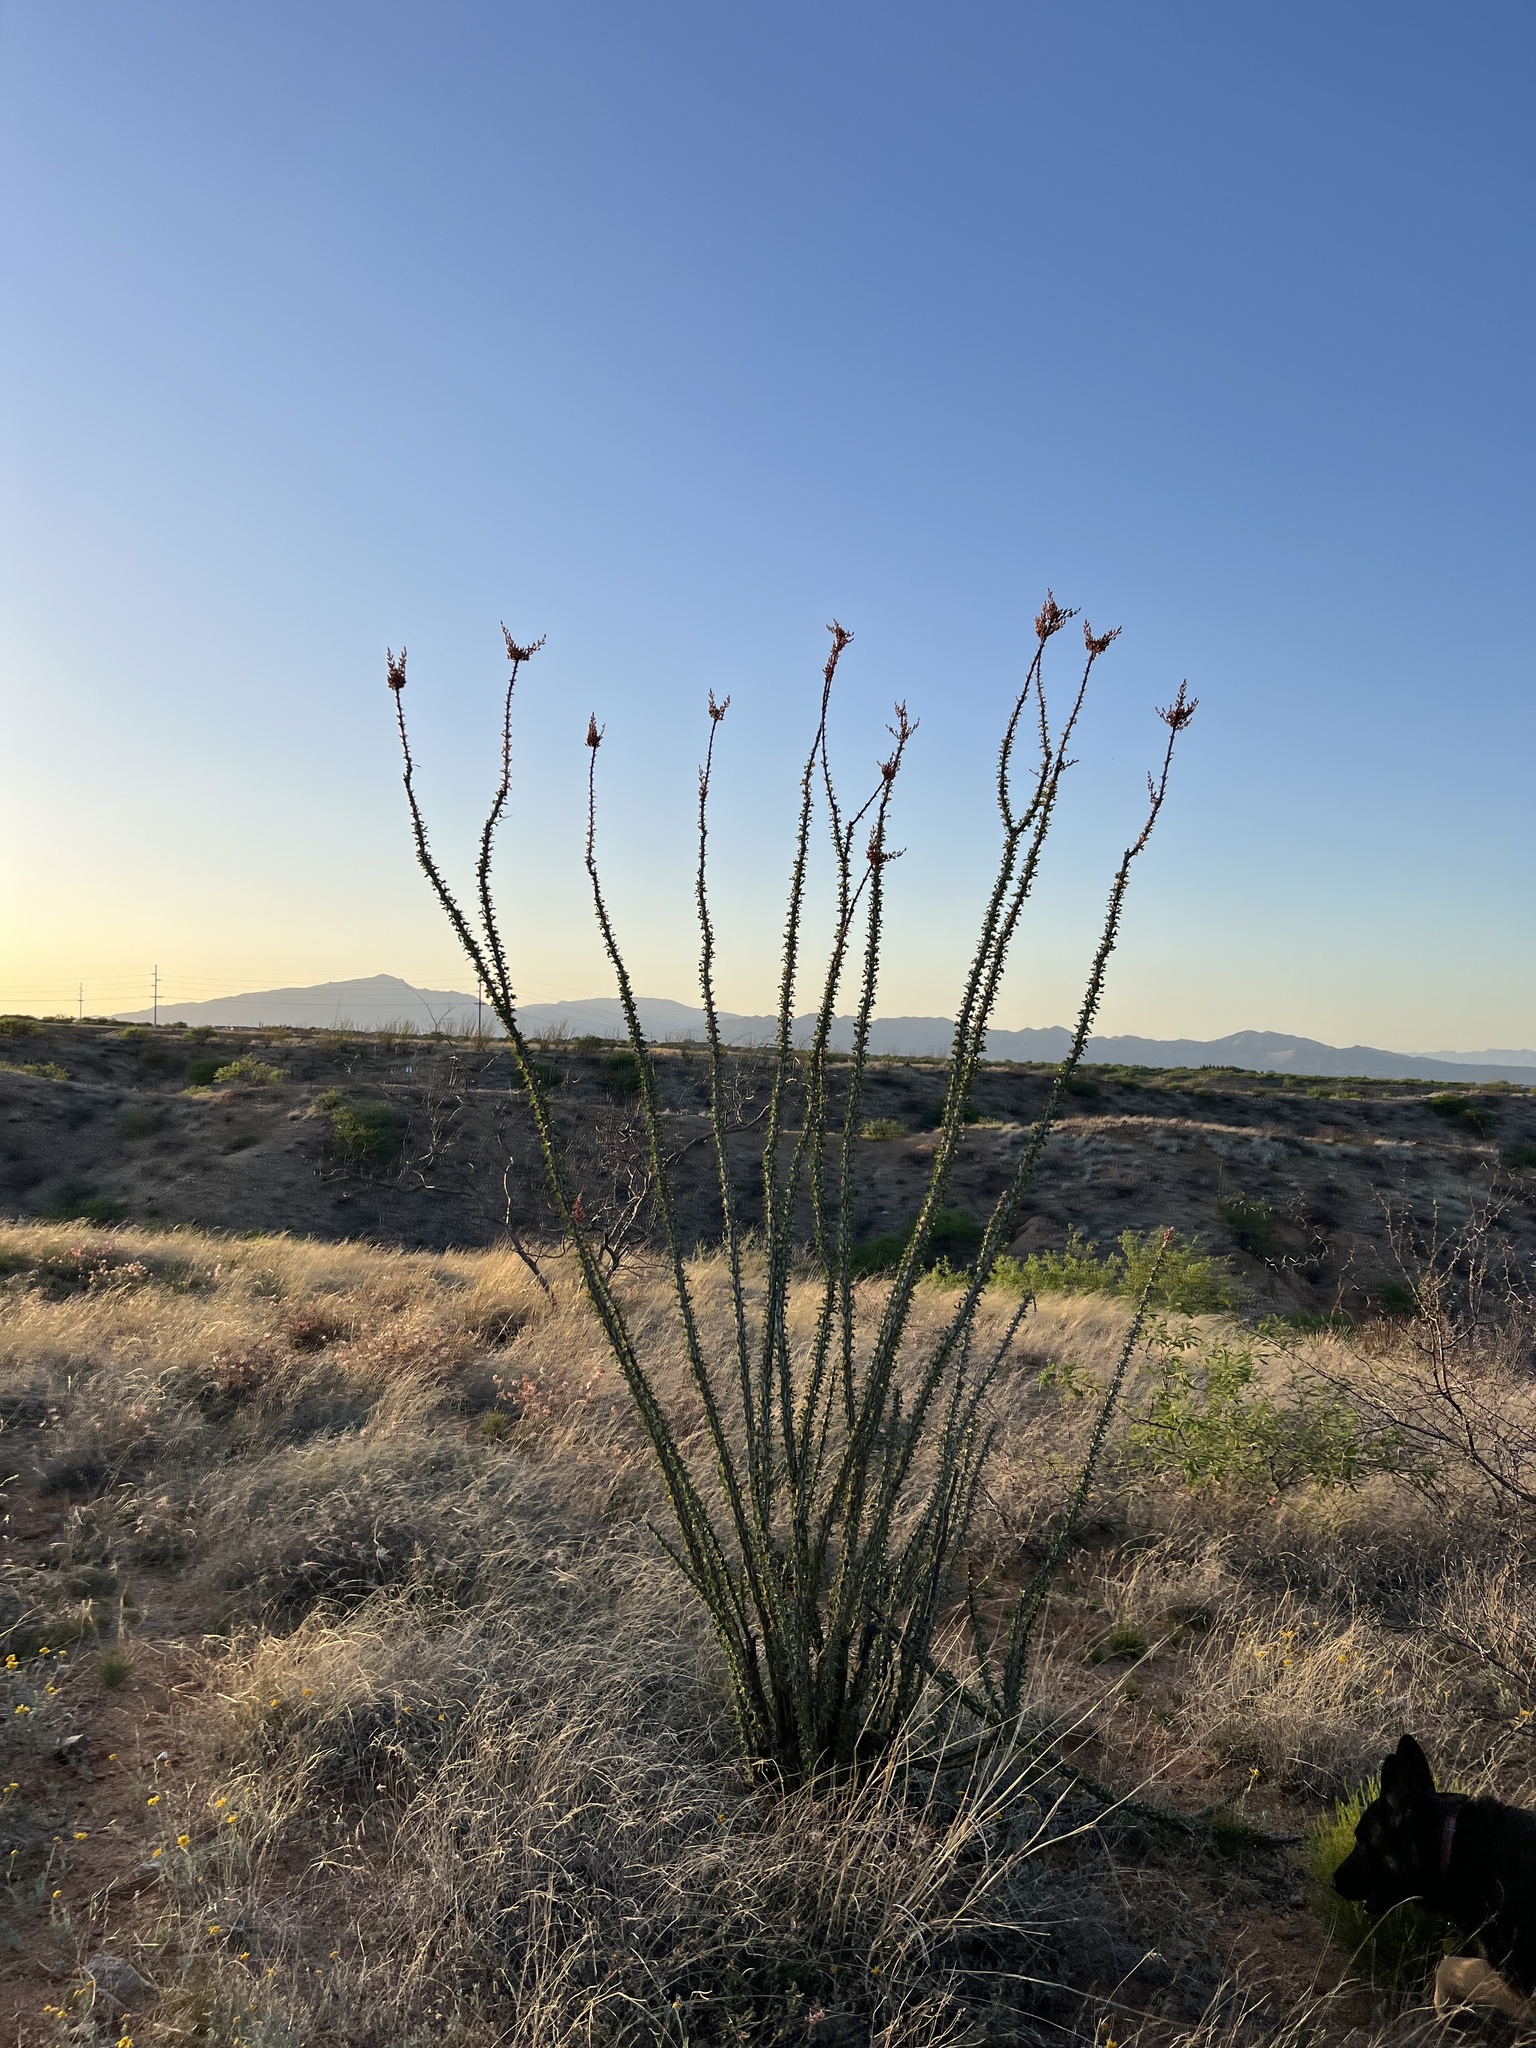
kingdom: Plantae
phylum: Tracheophyta
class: Magnoliopsida
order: Ericales
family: Fouquieriaceae
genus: Fouquieria
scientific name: Fouquieria splendens
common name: Vine-cactus
